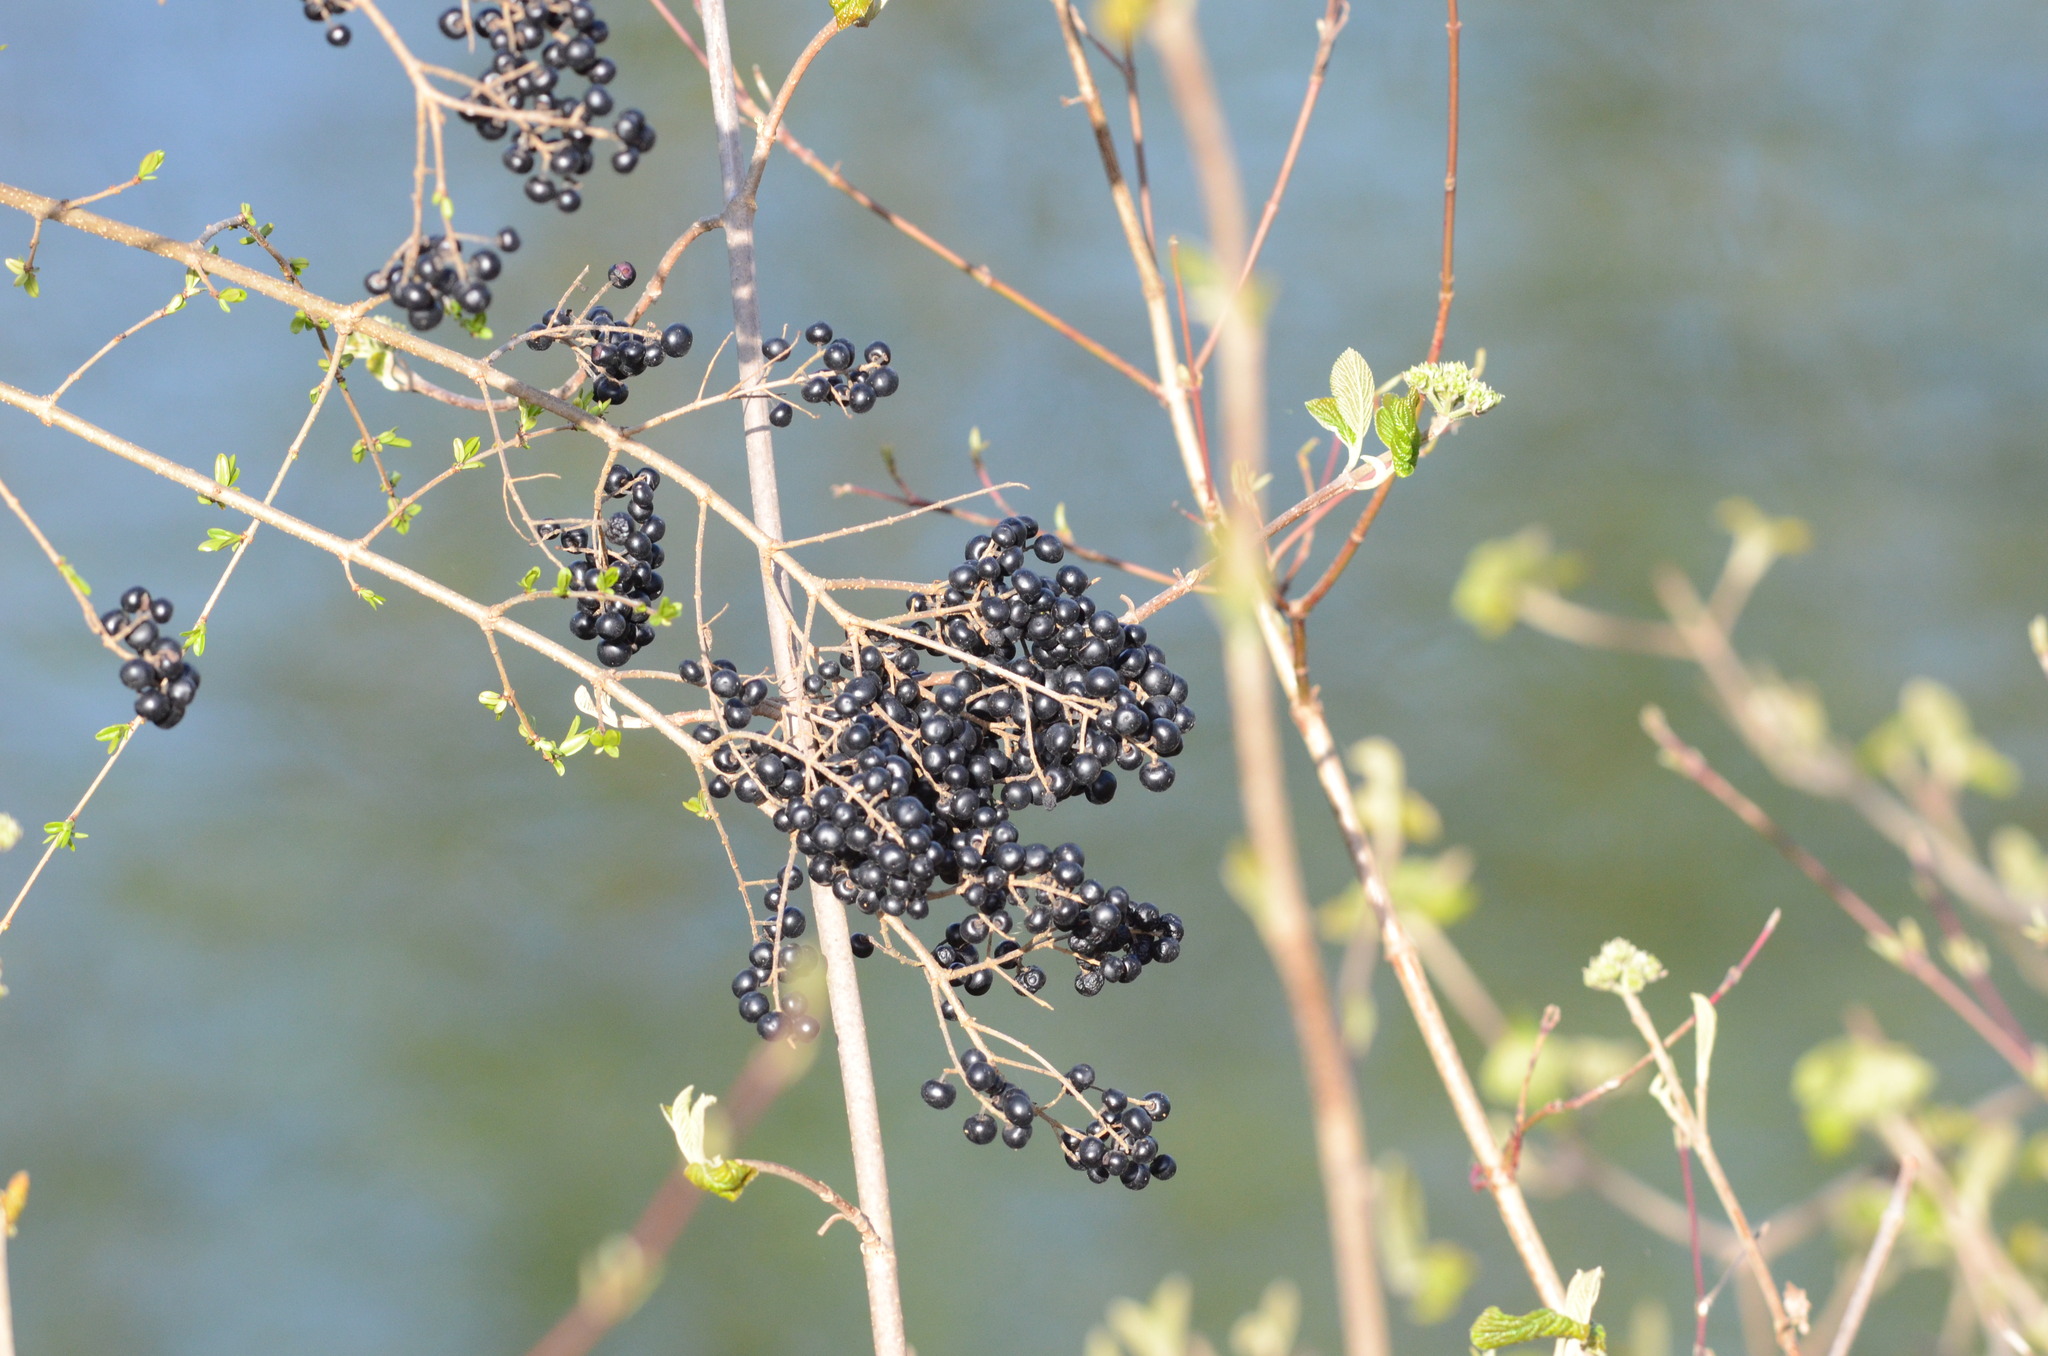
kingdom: Plantae
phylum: Tracheophyta
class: Magnoliopsida
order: Lamiales
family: Oleaceae
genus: Ligustrum
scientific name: Ligustrum vulgare
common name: Wild privet
